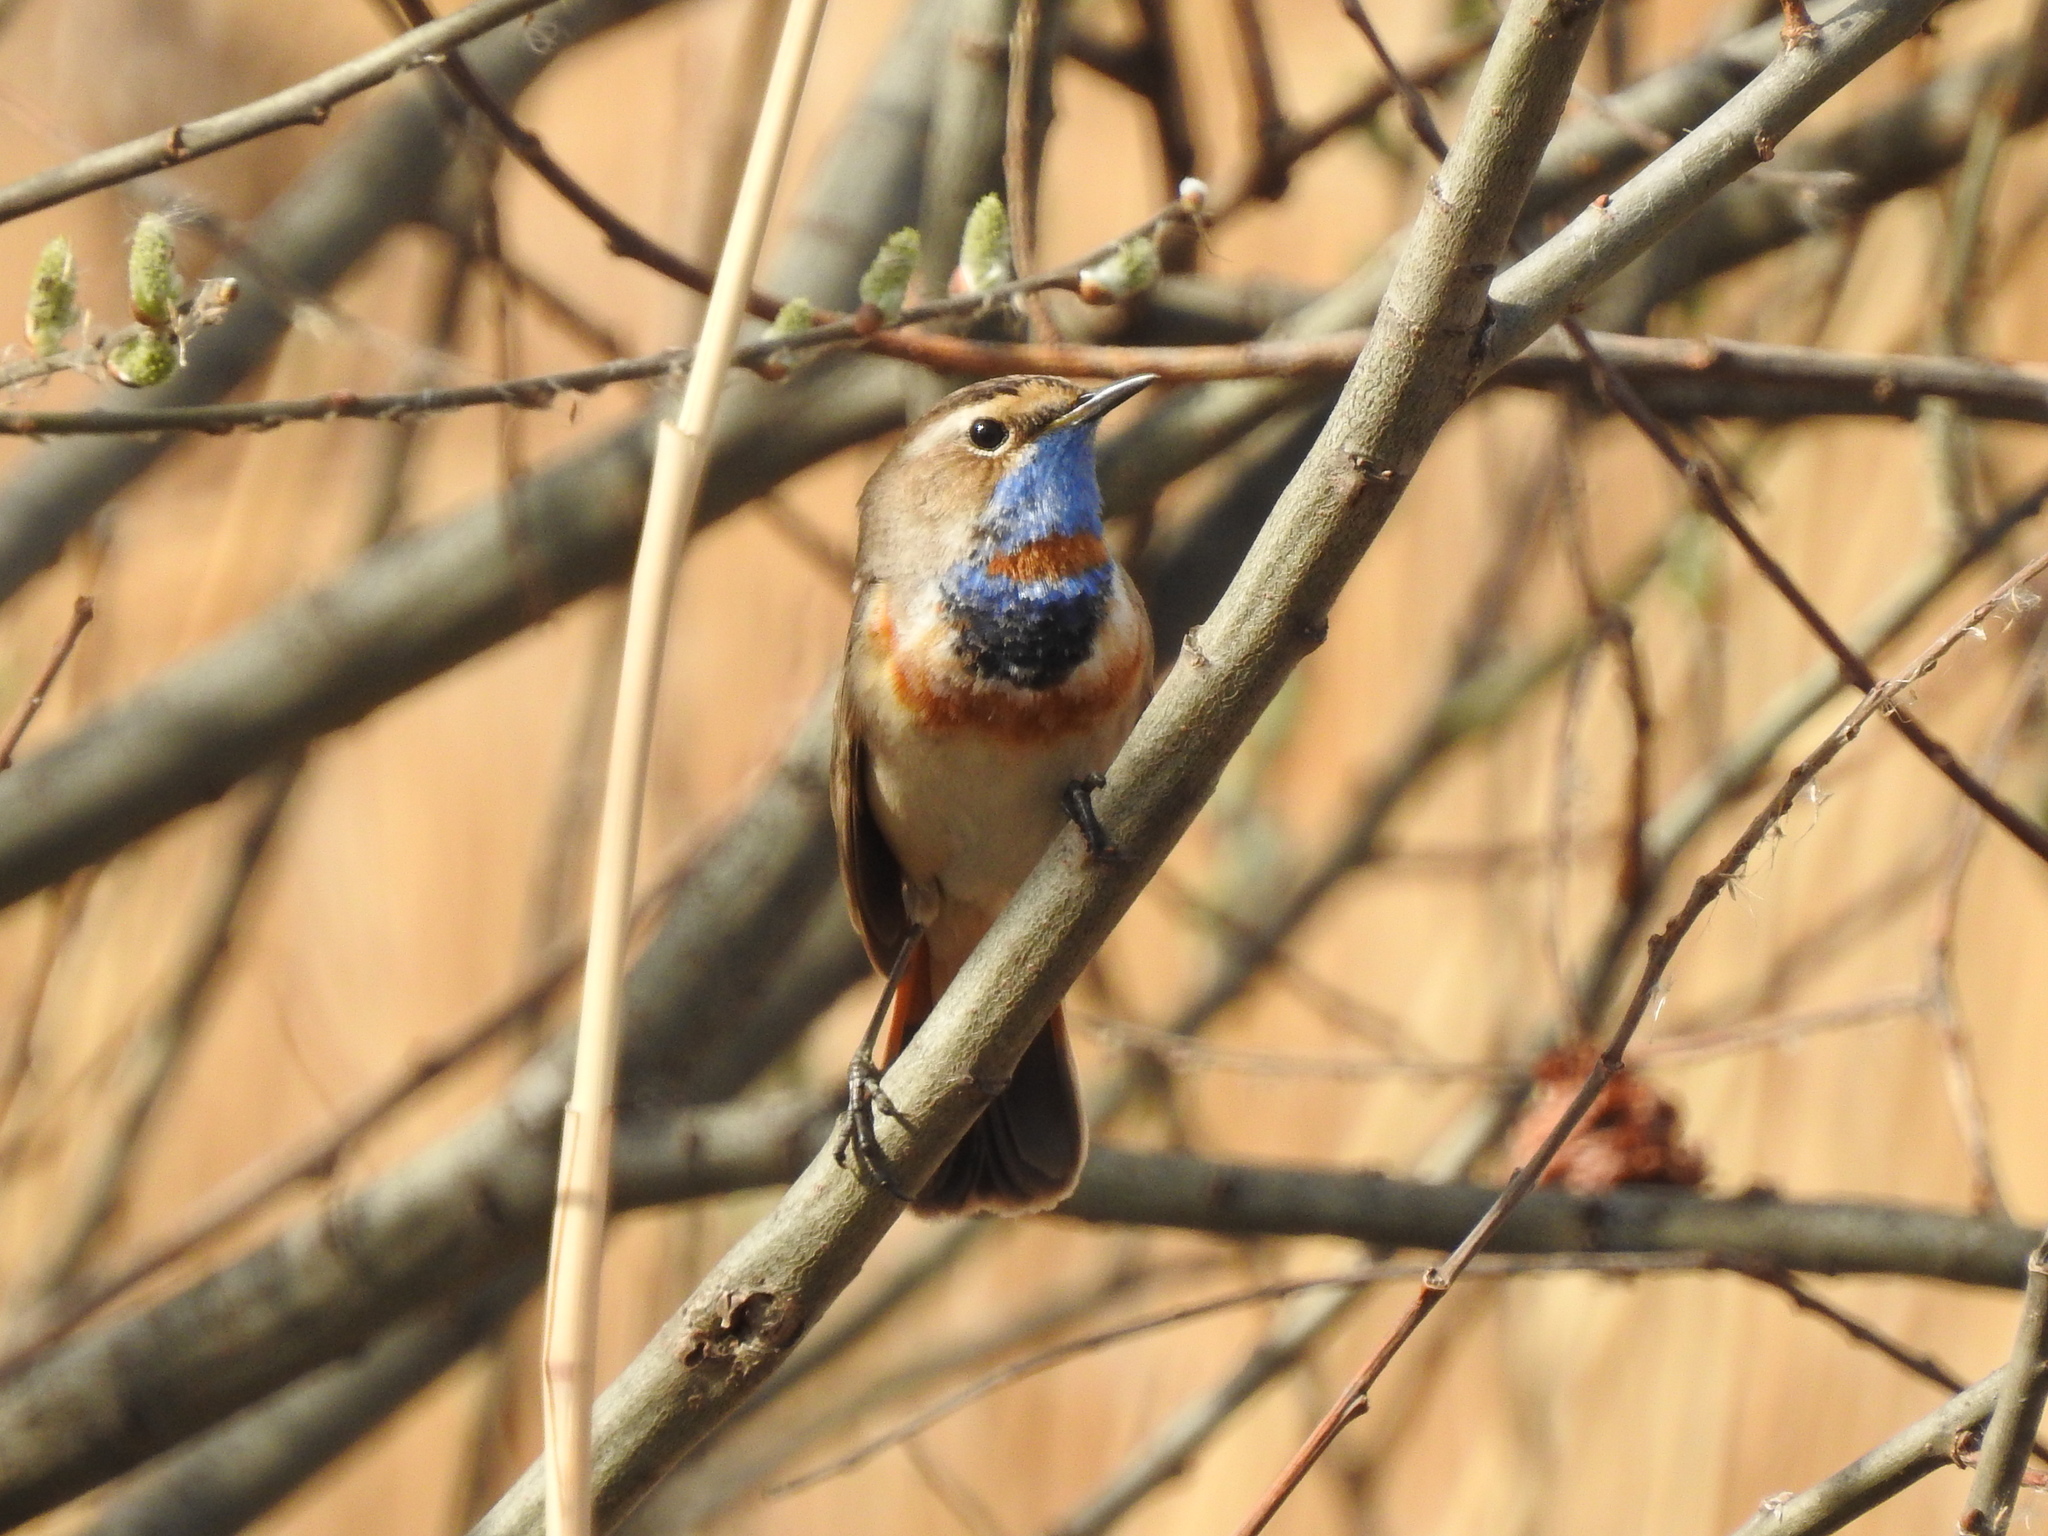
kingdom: Animalia
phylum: Chordata
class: Aves
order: Passeriformes
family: Muscicapidae
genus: Luscinia
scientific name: Luscinia svecica
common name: Bluethroat
